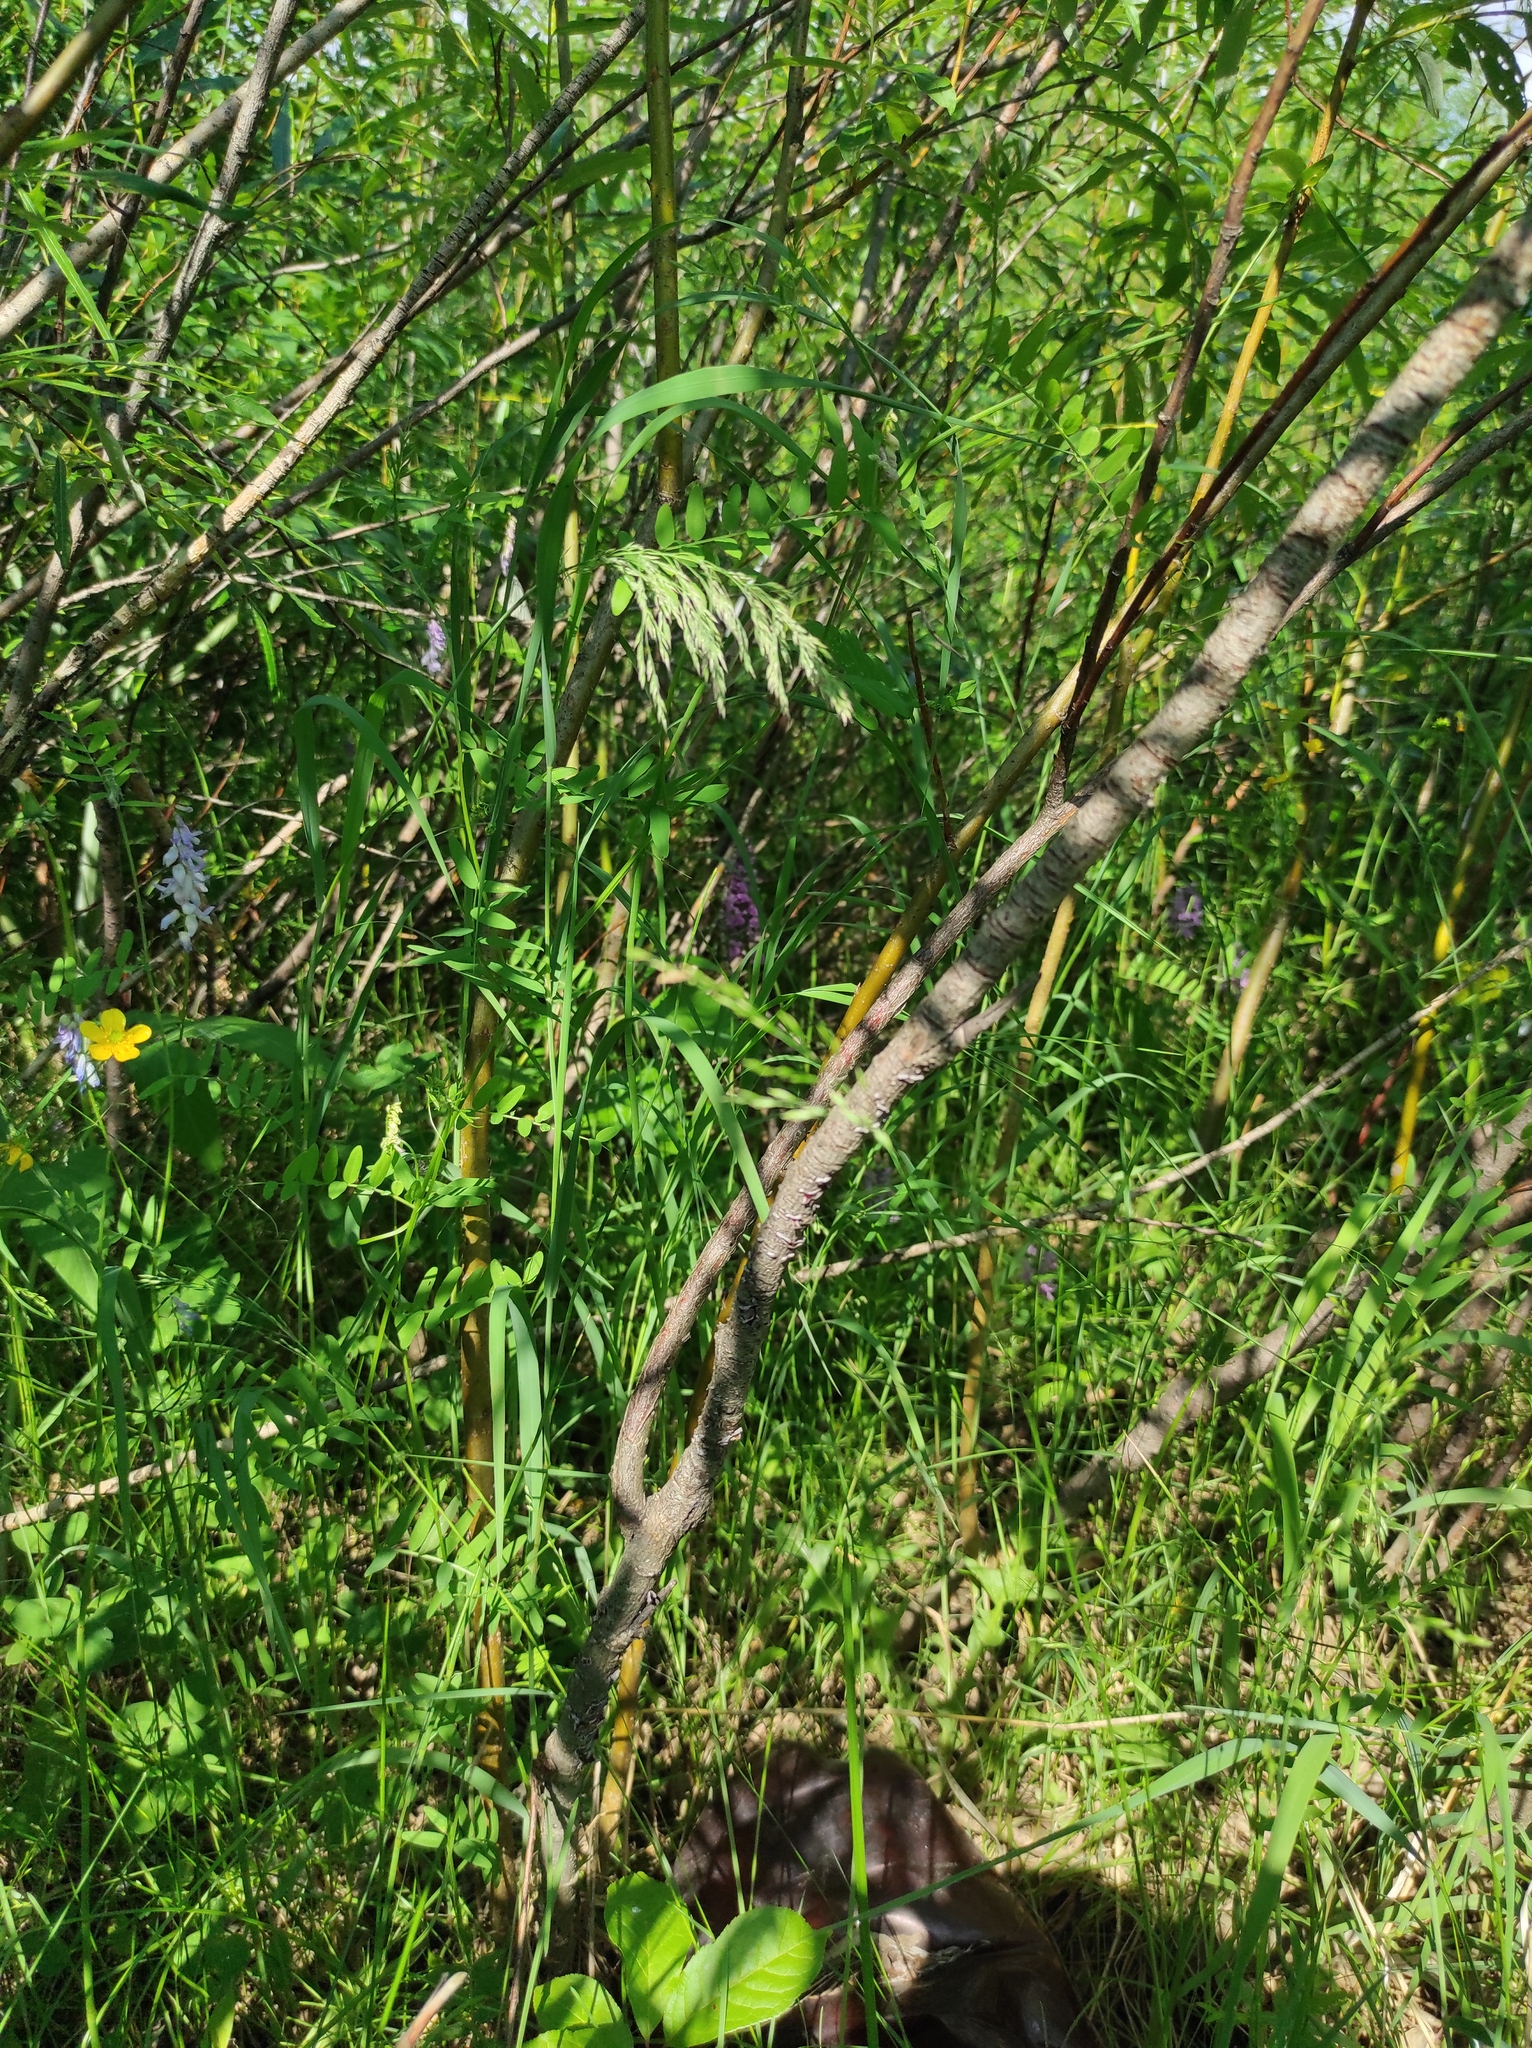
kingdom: Plantae
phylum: Tracheophyta
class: Liliopsida
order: Asparagales
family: Orchidaceae
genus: Dactylorhiza
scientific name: Dactylorhiza maculata
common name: Heath spotted-orchid
